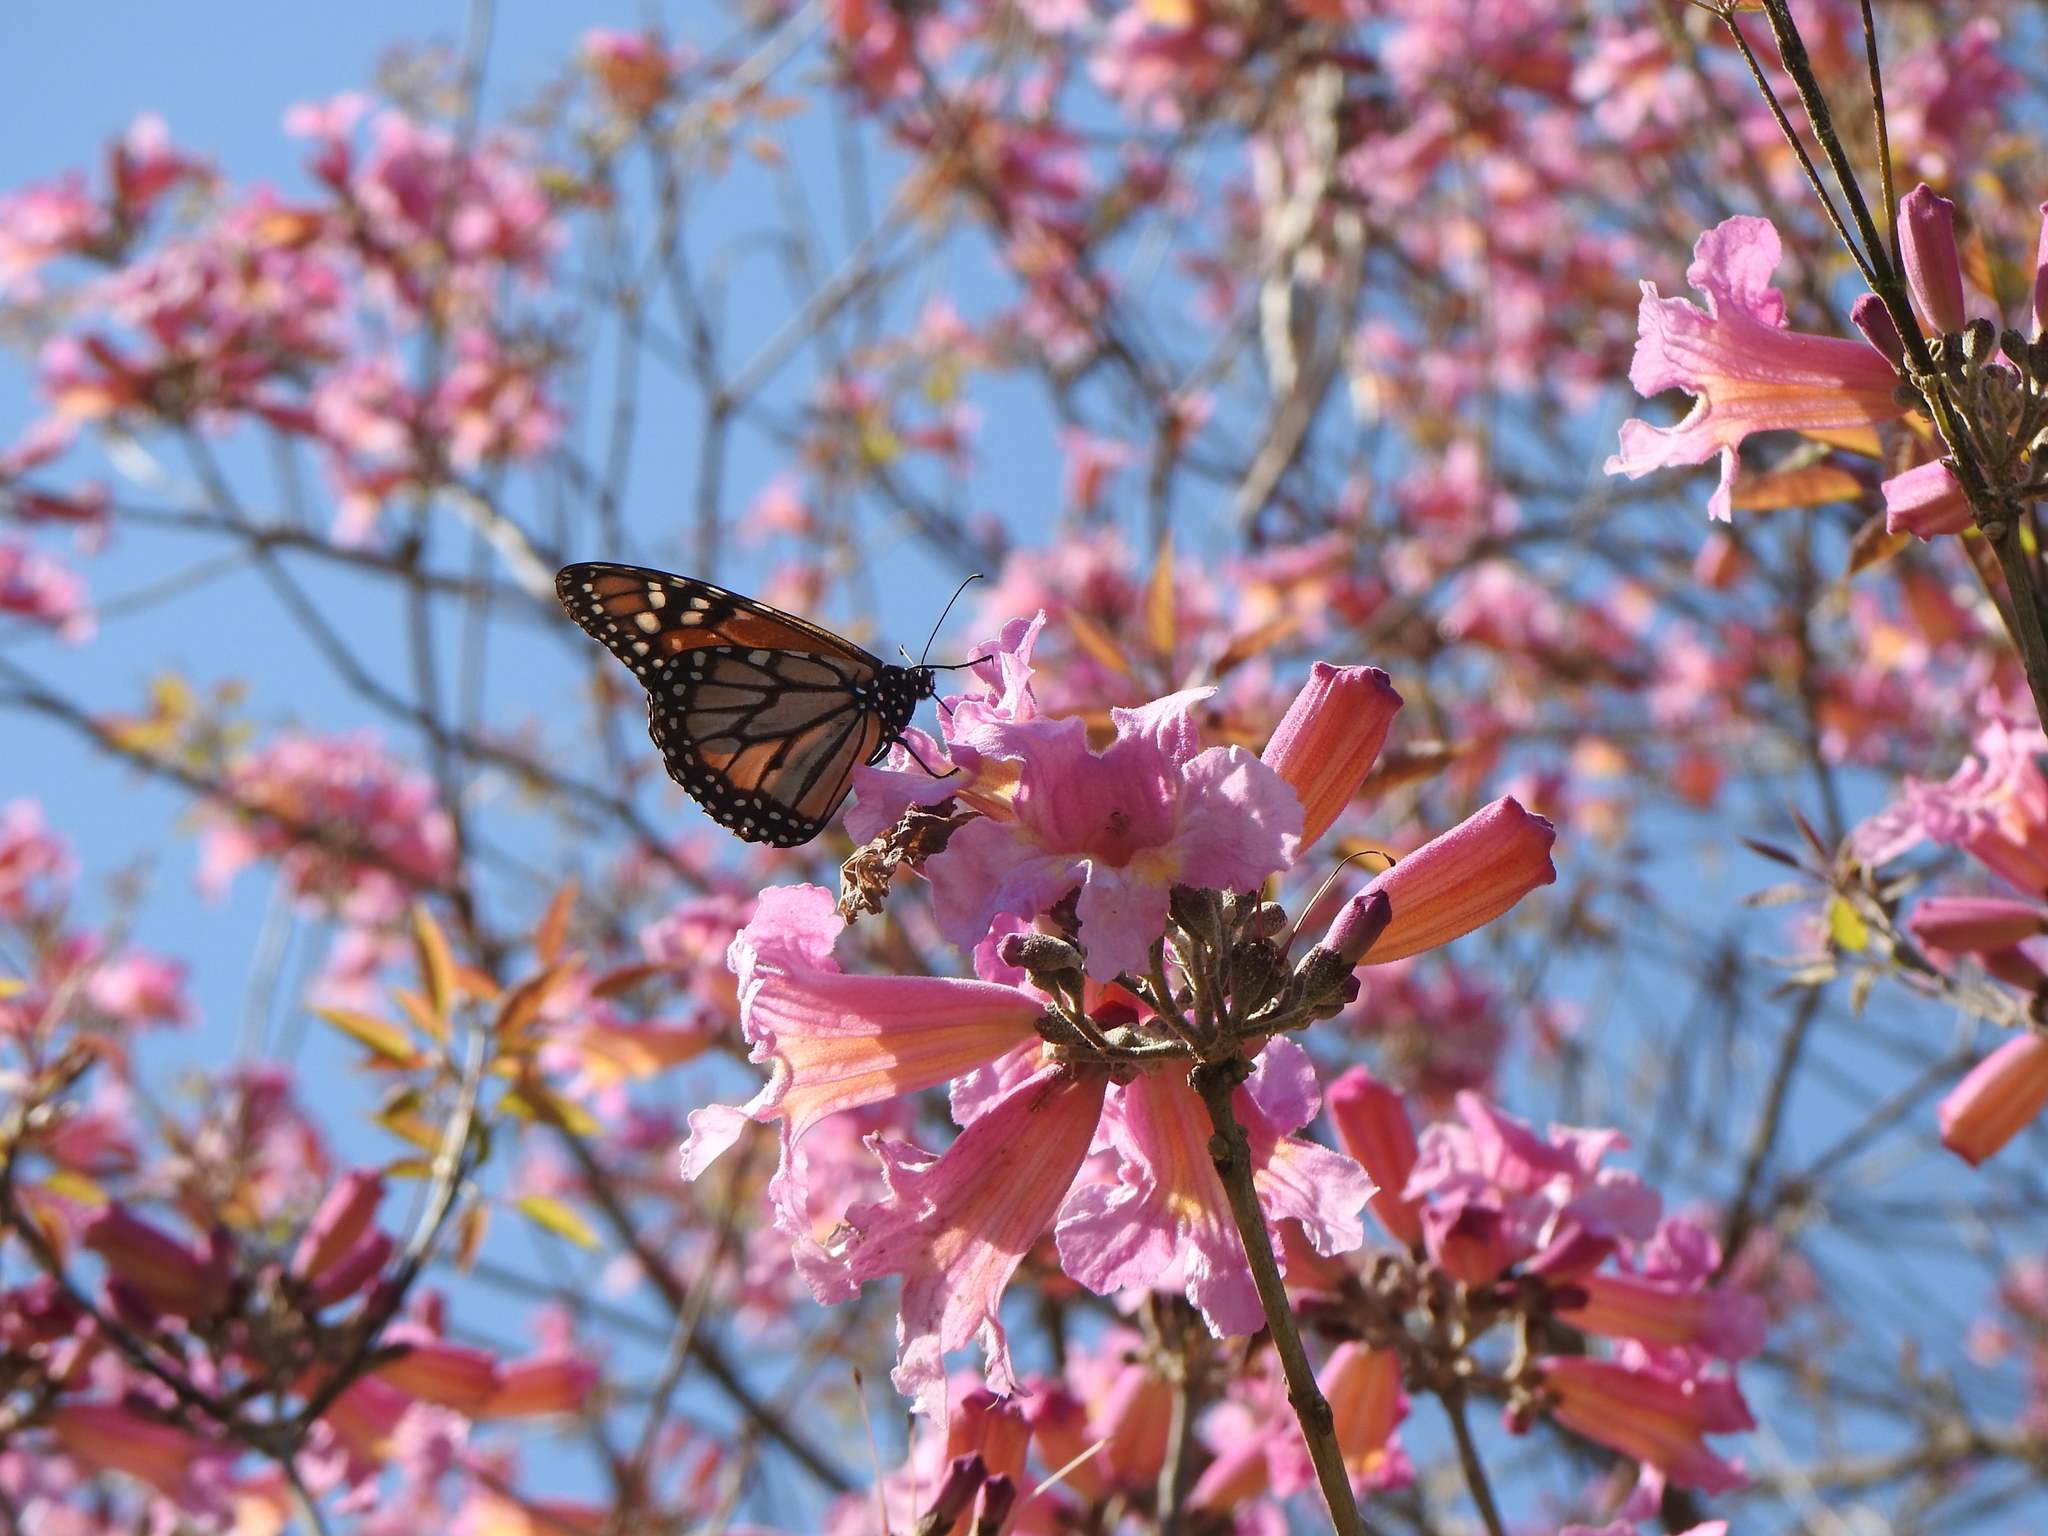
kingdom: Animalia
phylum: Arthropoda
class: Insecta
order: Lepidoptera
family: Nymphalidae
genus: Danaus
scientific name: Danaus erippus
